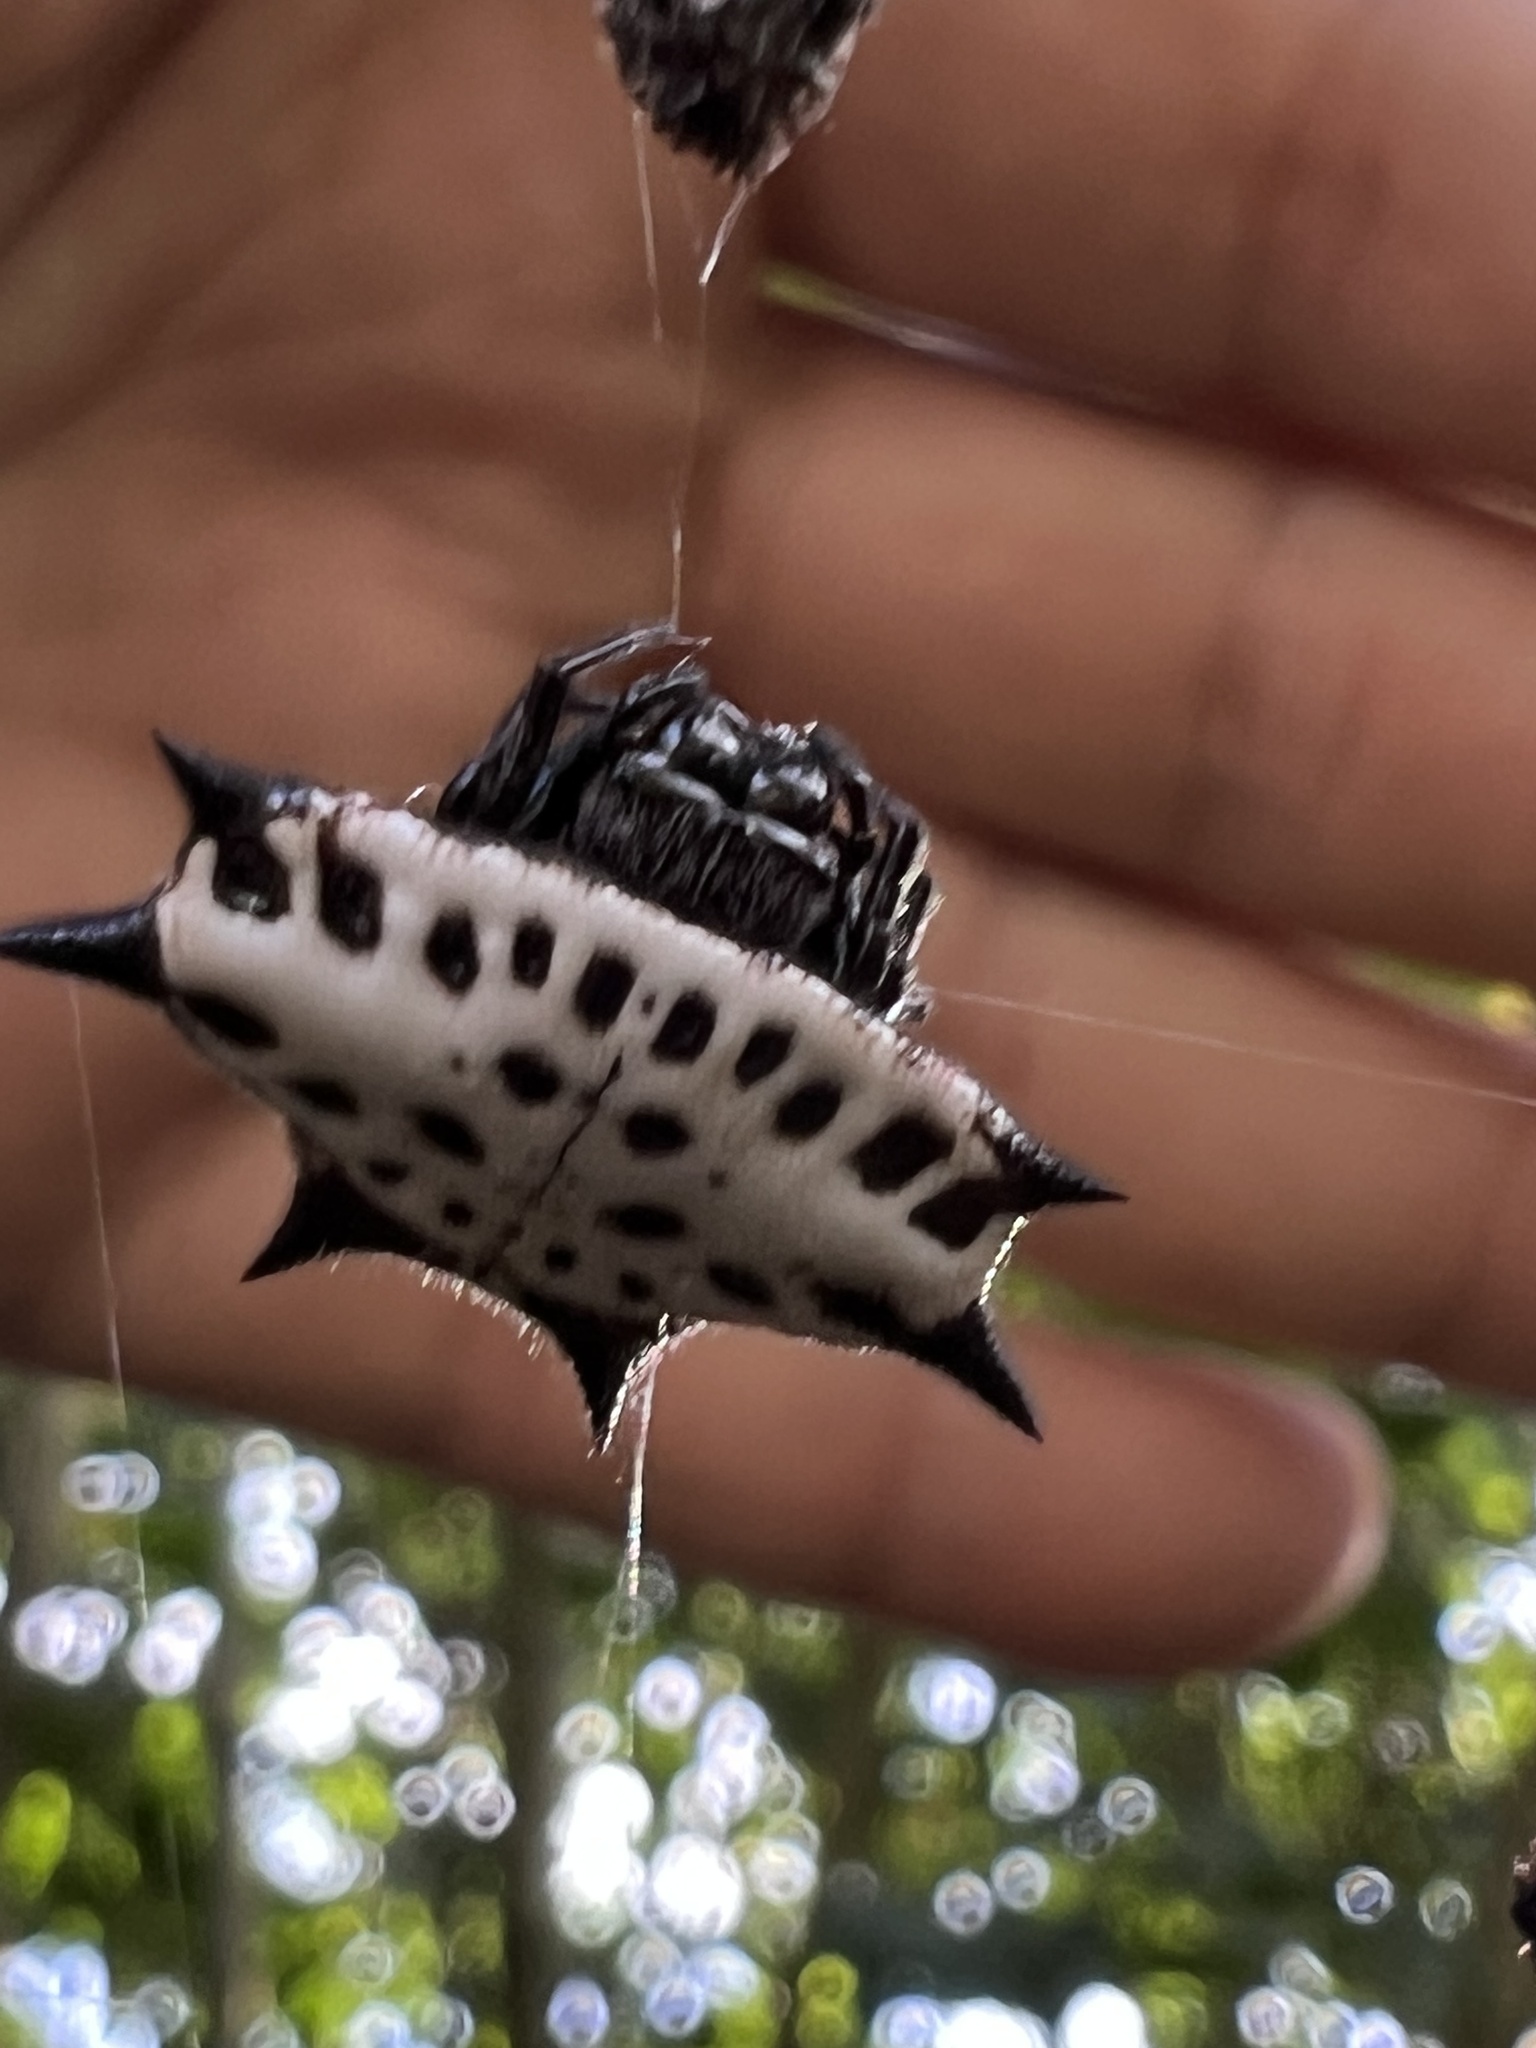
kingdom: Animalia
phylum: Arthropoda
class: Arachnida
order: Araneae
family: Araneidae
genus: Gasteracantha
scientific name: Gasteracantha cancriformis
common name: Orb weavers
